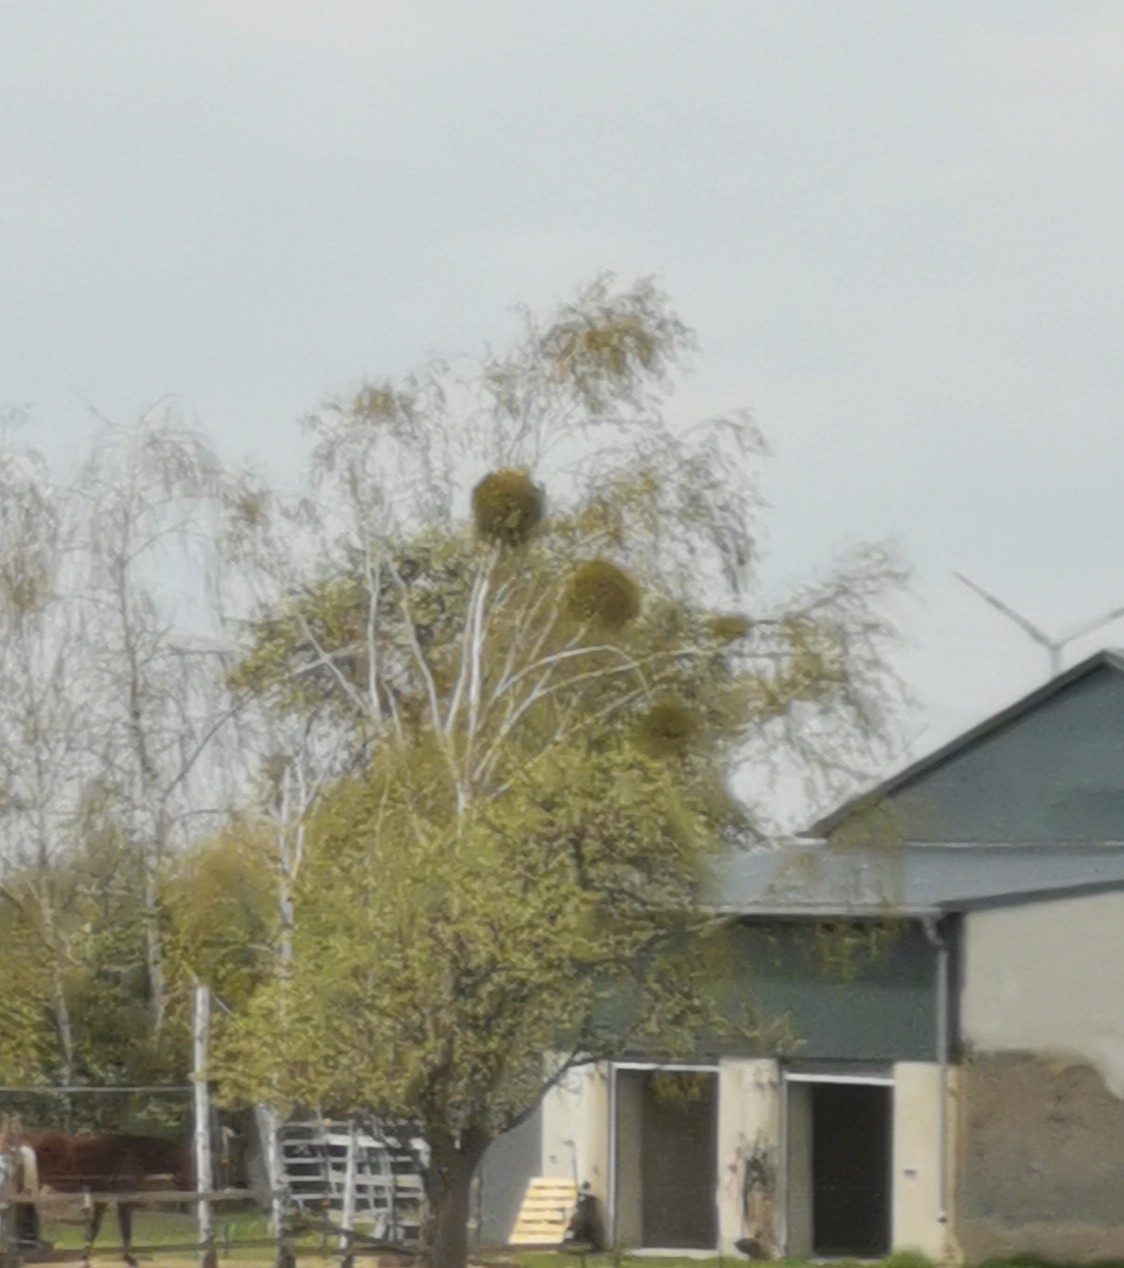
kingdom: Plantae
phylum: Tracheophyta
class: Magnoliopsida
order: Santalales
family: Viscaceae
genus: Viscum
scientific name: Viscum album
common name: Mistletoe
